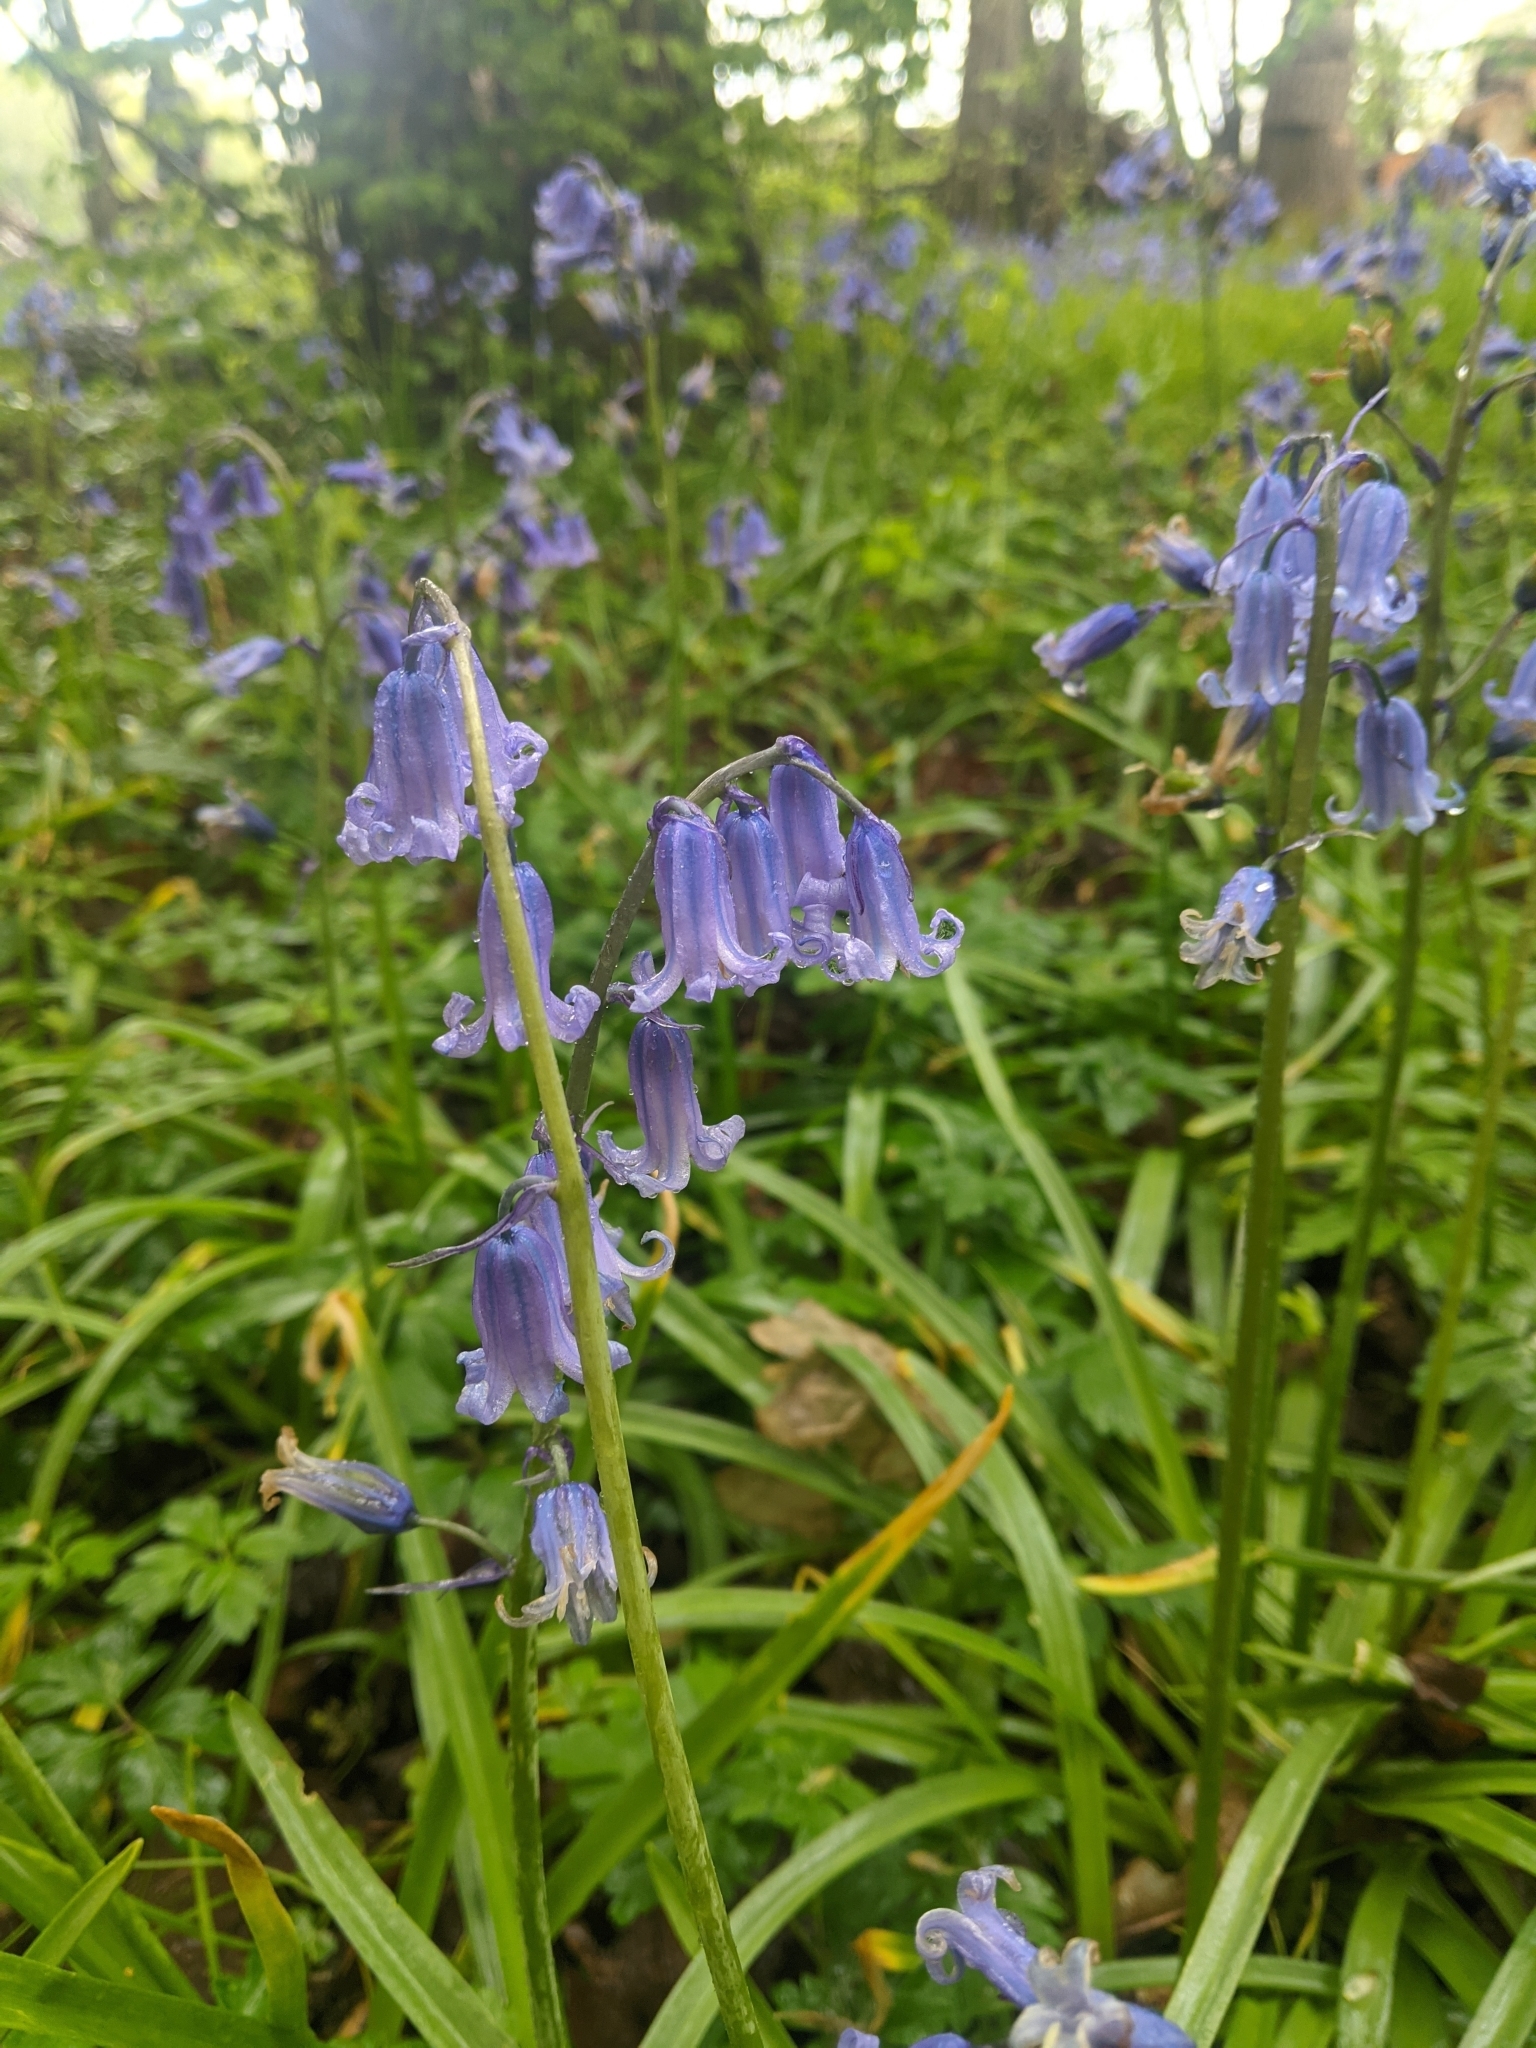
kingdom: Fungi
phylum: Basidiomycota
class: Pucciniomycetes
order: Pucciniales
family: Pucciniaceae
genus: Uromyces
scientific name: Uromyces hyacinthi
